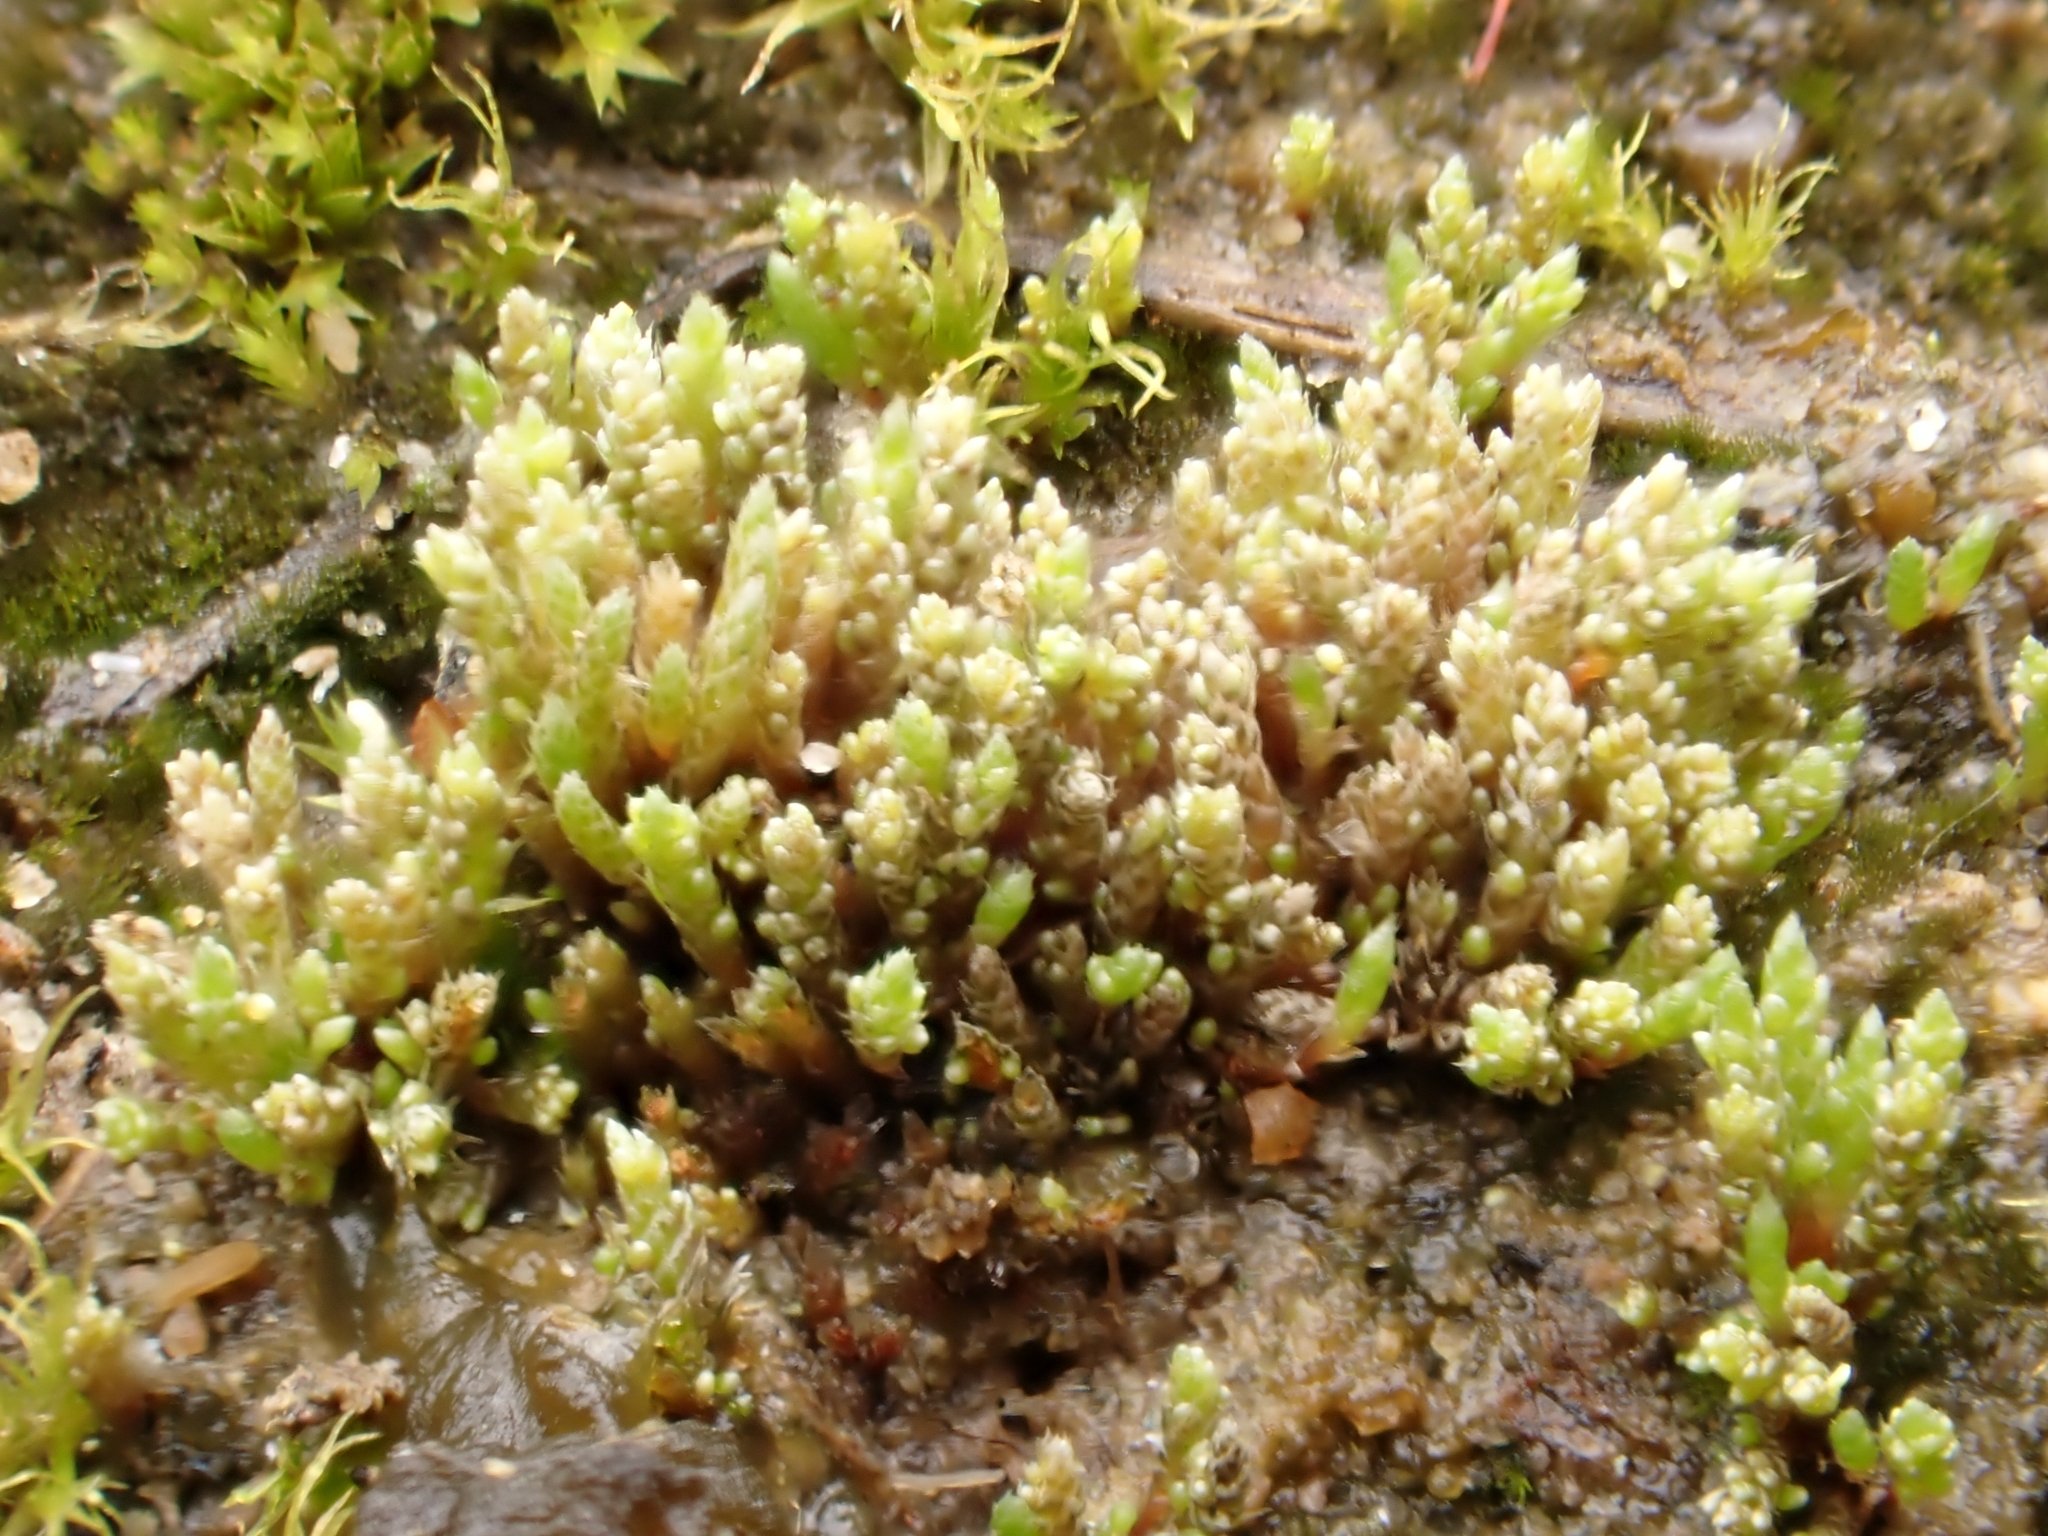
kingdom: Plantae
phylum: Bryophyta
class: Bryopsida
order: Bryales
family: Bryaceae
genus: Gemmabryum
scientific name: Gemmabryum dichotomum
